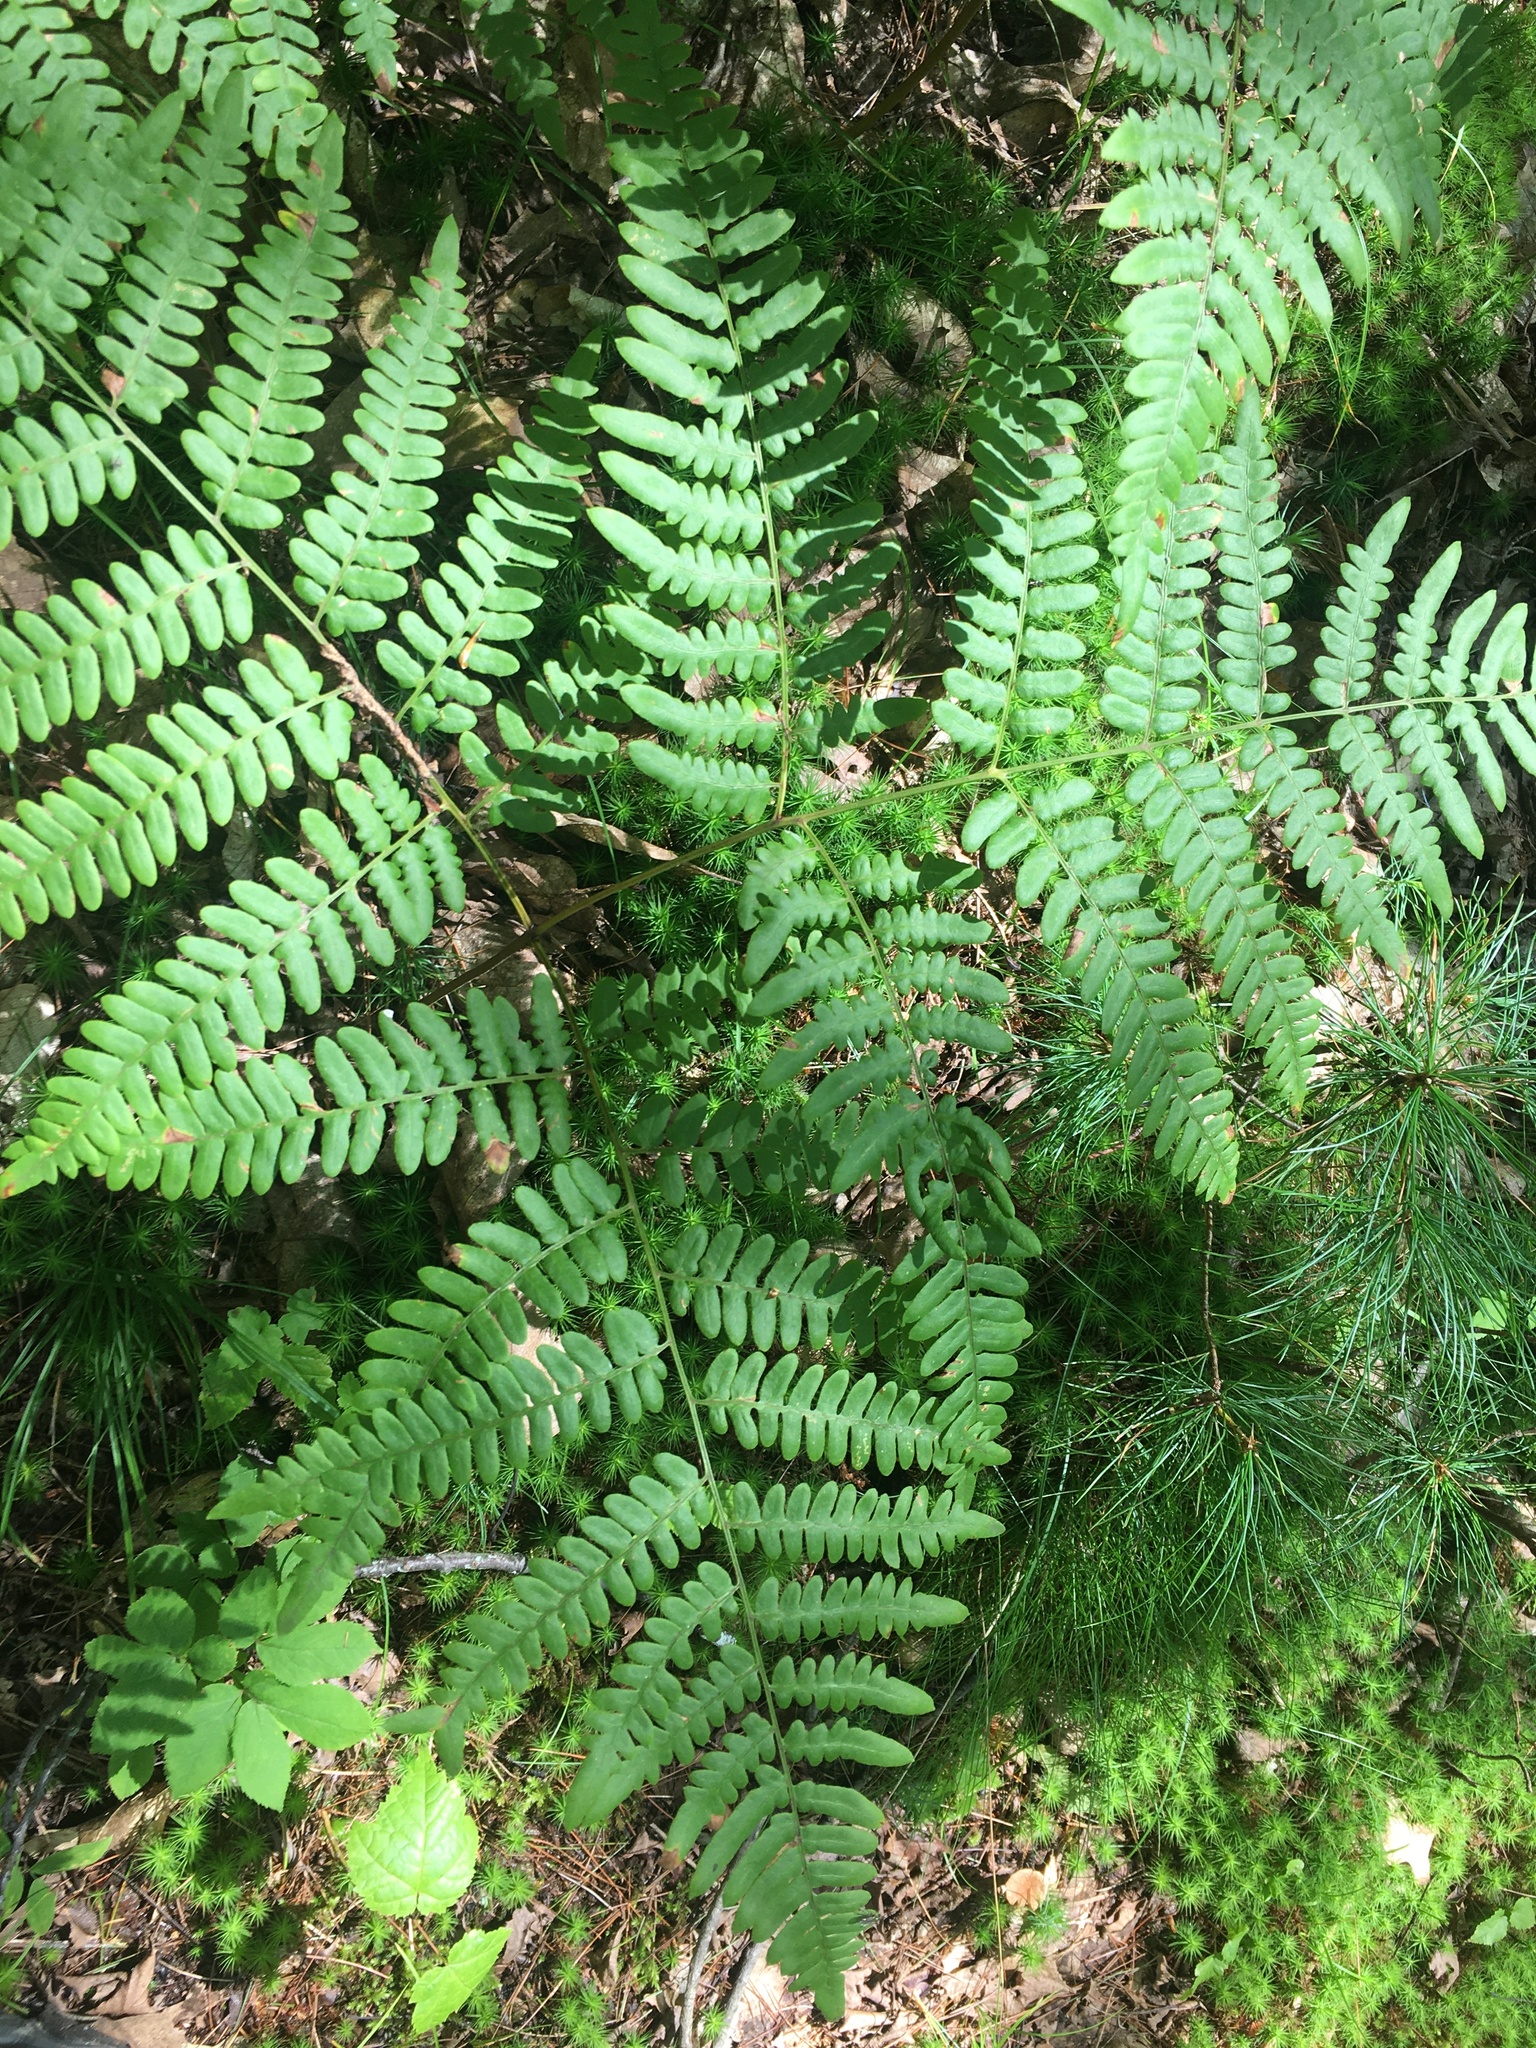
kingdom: Plantae
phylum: Tracheophyta
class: Polypodiopsida
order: Polypodiales
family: Dennstaedtiaceae
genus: Pteridium
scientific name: Pteridium aquilinum
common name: Bracken
